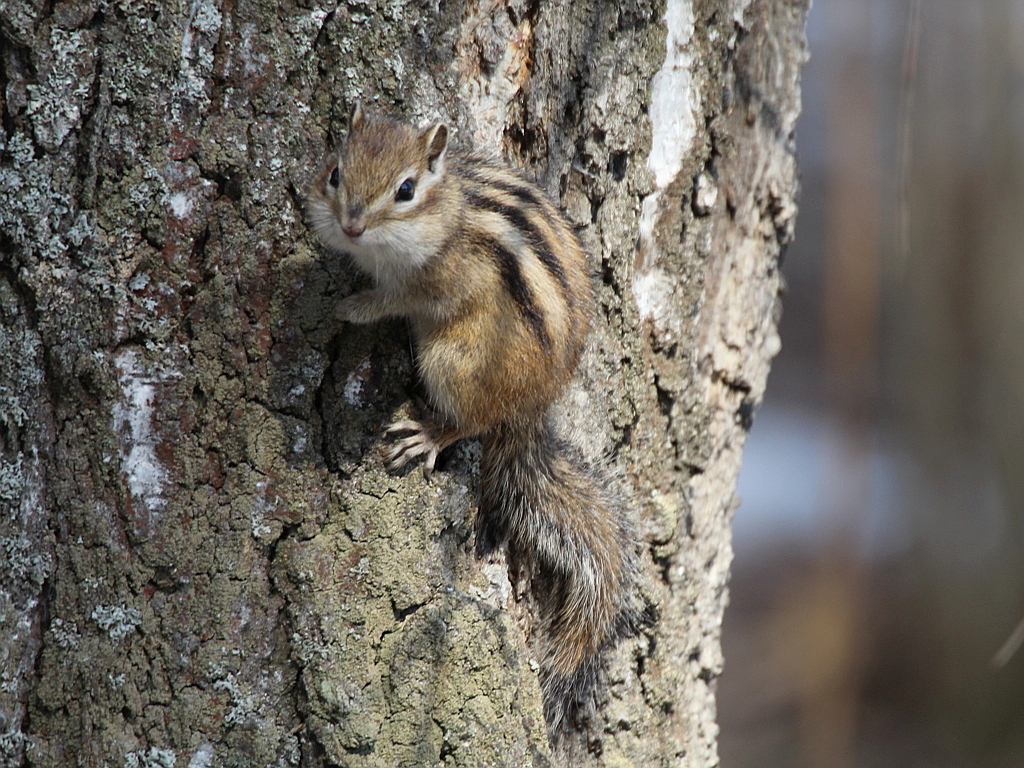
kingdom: Animalia
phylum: Chordata
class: Mammalia
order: Rodentia
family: Sciuridae
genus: Tamias
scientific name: Tamias sibiricus
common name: Siberian chipmunk
